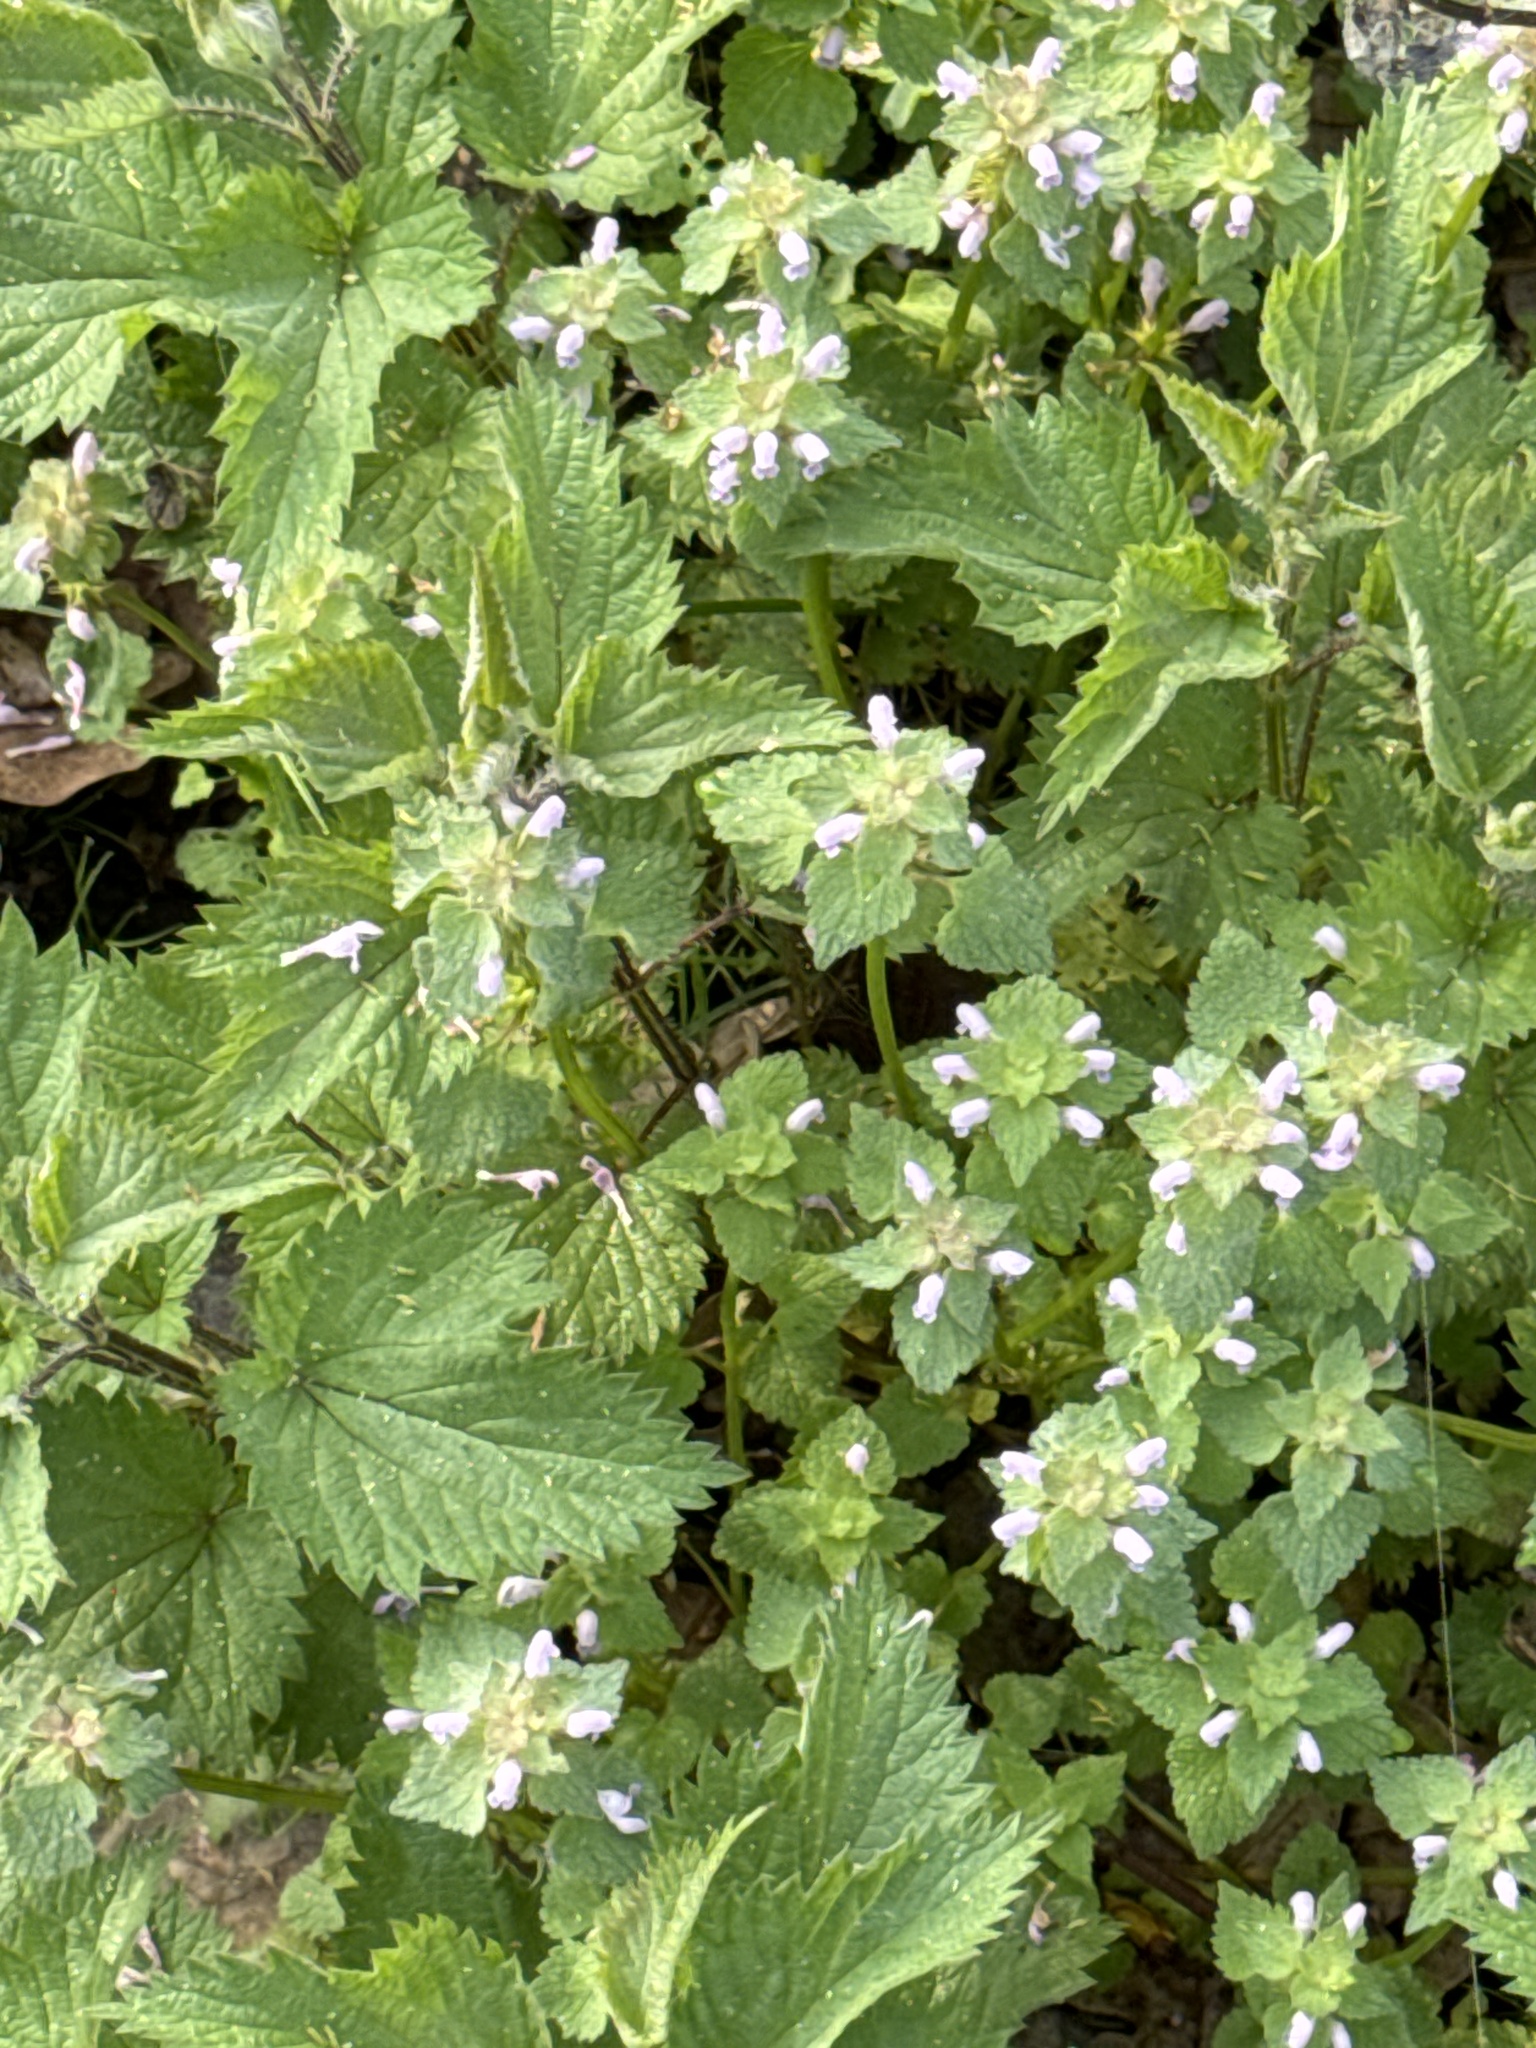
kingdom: Plantae
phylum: Tracheophyta
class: Magnoliopsida
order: Lamiales
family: Lamiaceae
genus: Lamium
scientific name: Lamium purpureum
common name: Red dead-nettle
